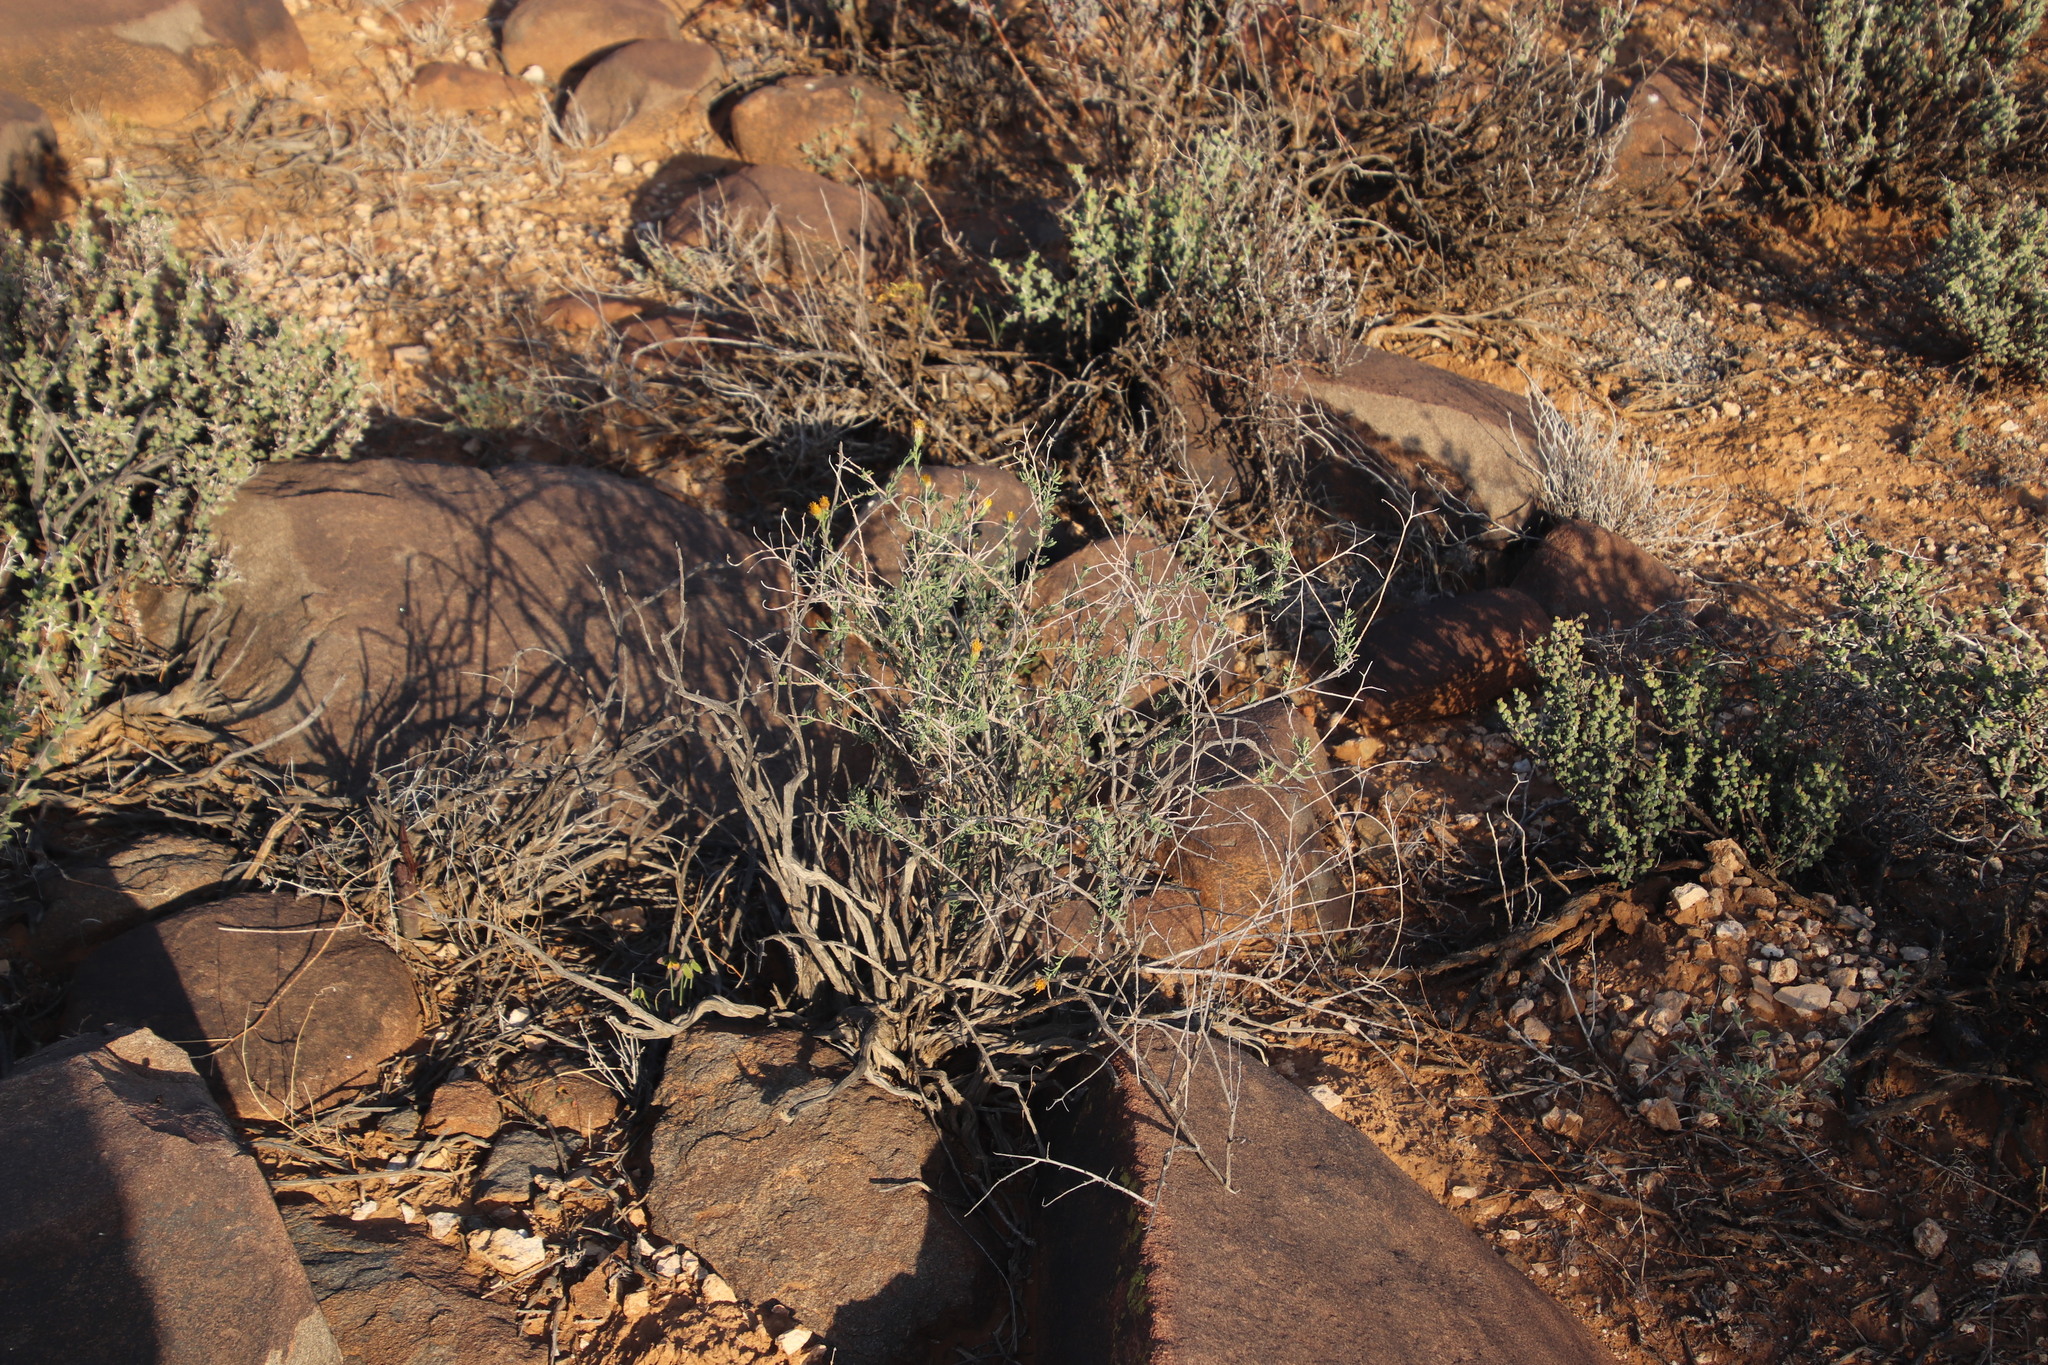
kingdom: Plantae
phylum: Tracheophyta
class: Magnoliopsida
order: Asterales
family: Asteraceae
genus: Pteronia
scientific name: Pteronia aspalatha
